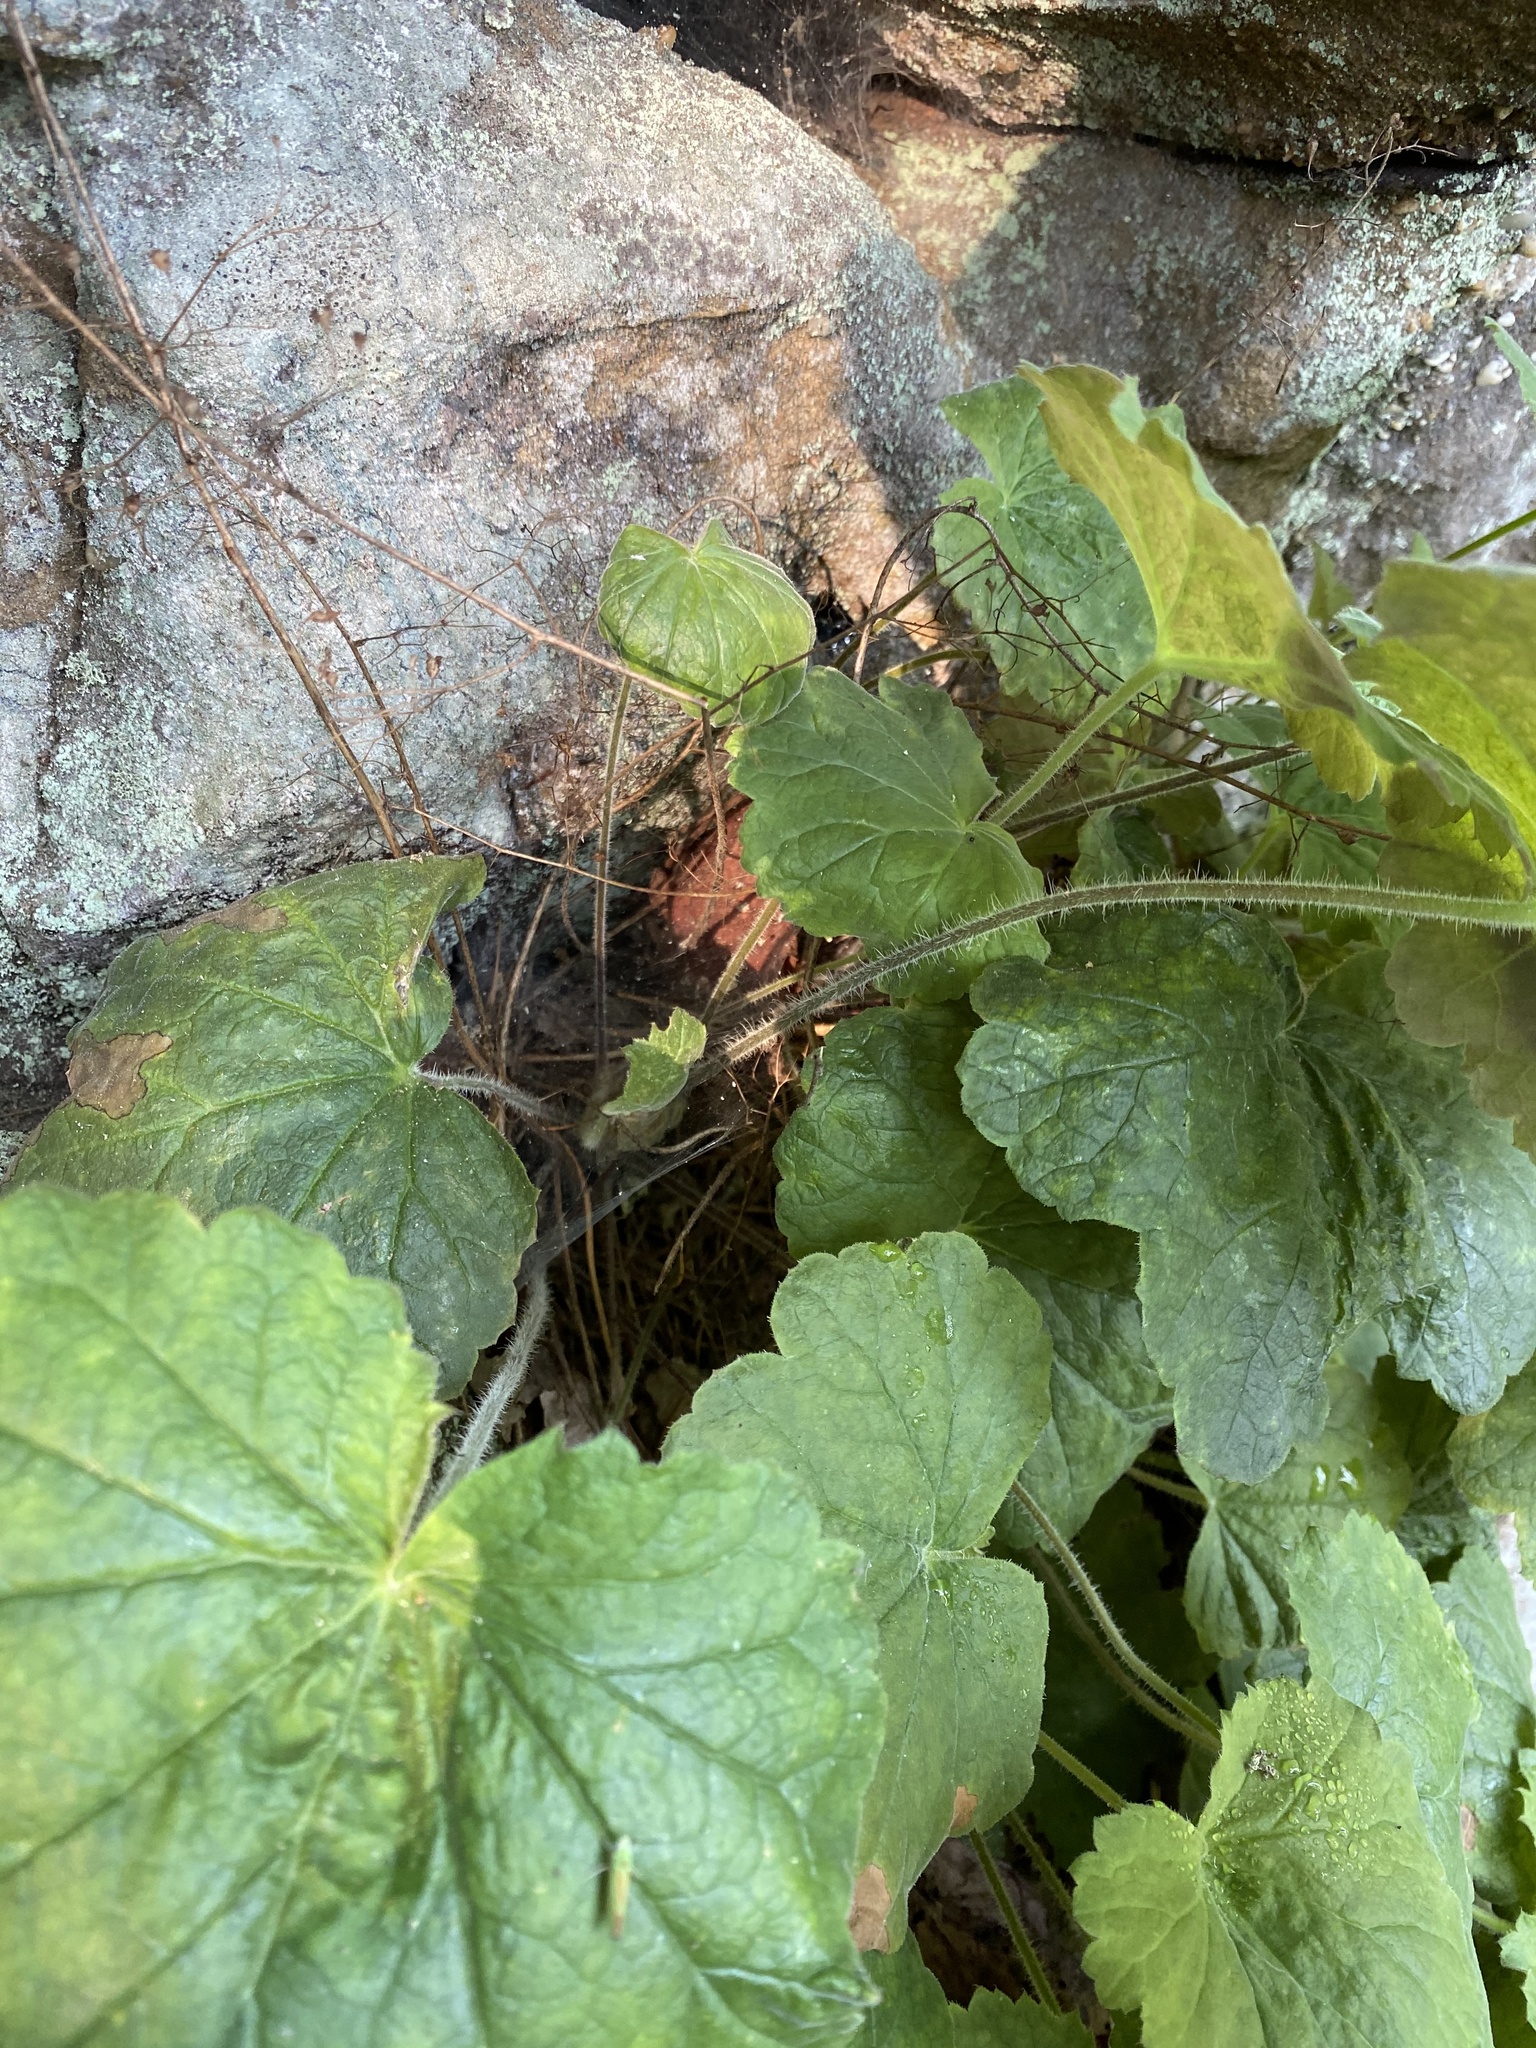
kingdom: Plantae
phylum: Tracheophyta
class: Magnoliopsida
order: Saxifragales
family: Saxifragaceae
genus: Heuchera
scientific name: Heuchera parviflora
